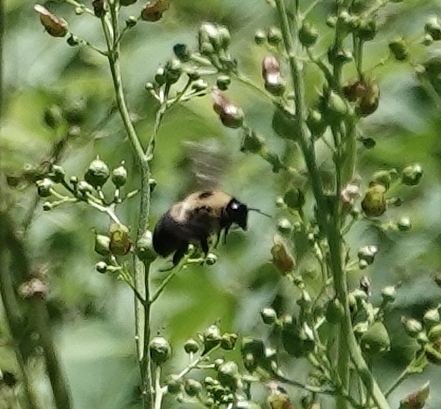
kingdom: Animalia
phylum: Arthropoda
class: Insecta
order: Hymenoptera
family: Apidae
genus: Bombus
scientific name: Bombus griseocollis
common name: Brown-belted bumble bee
